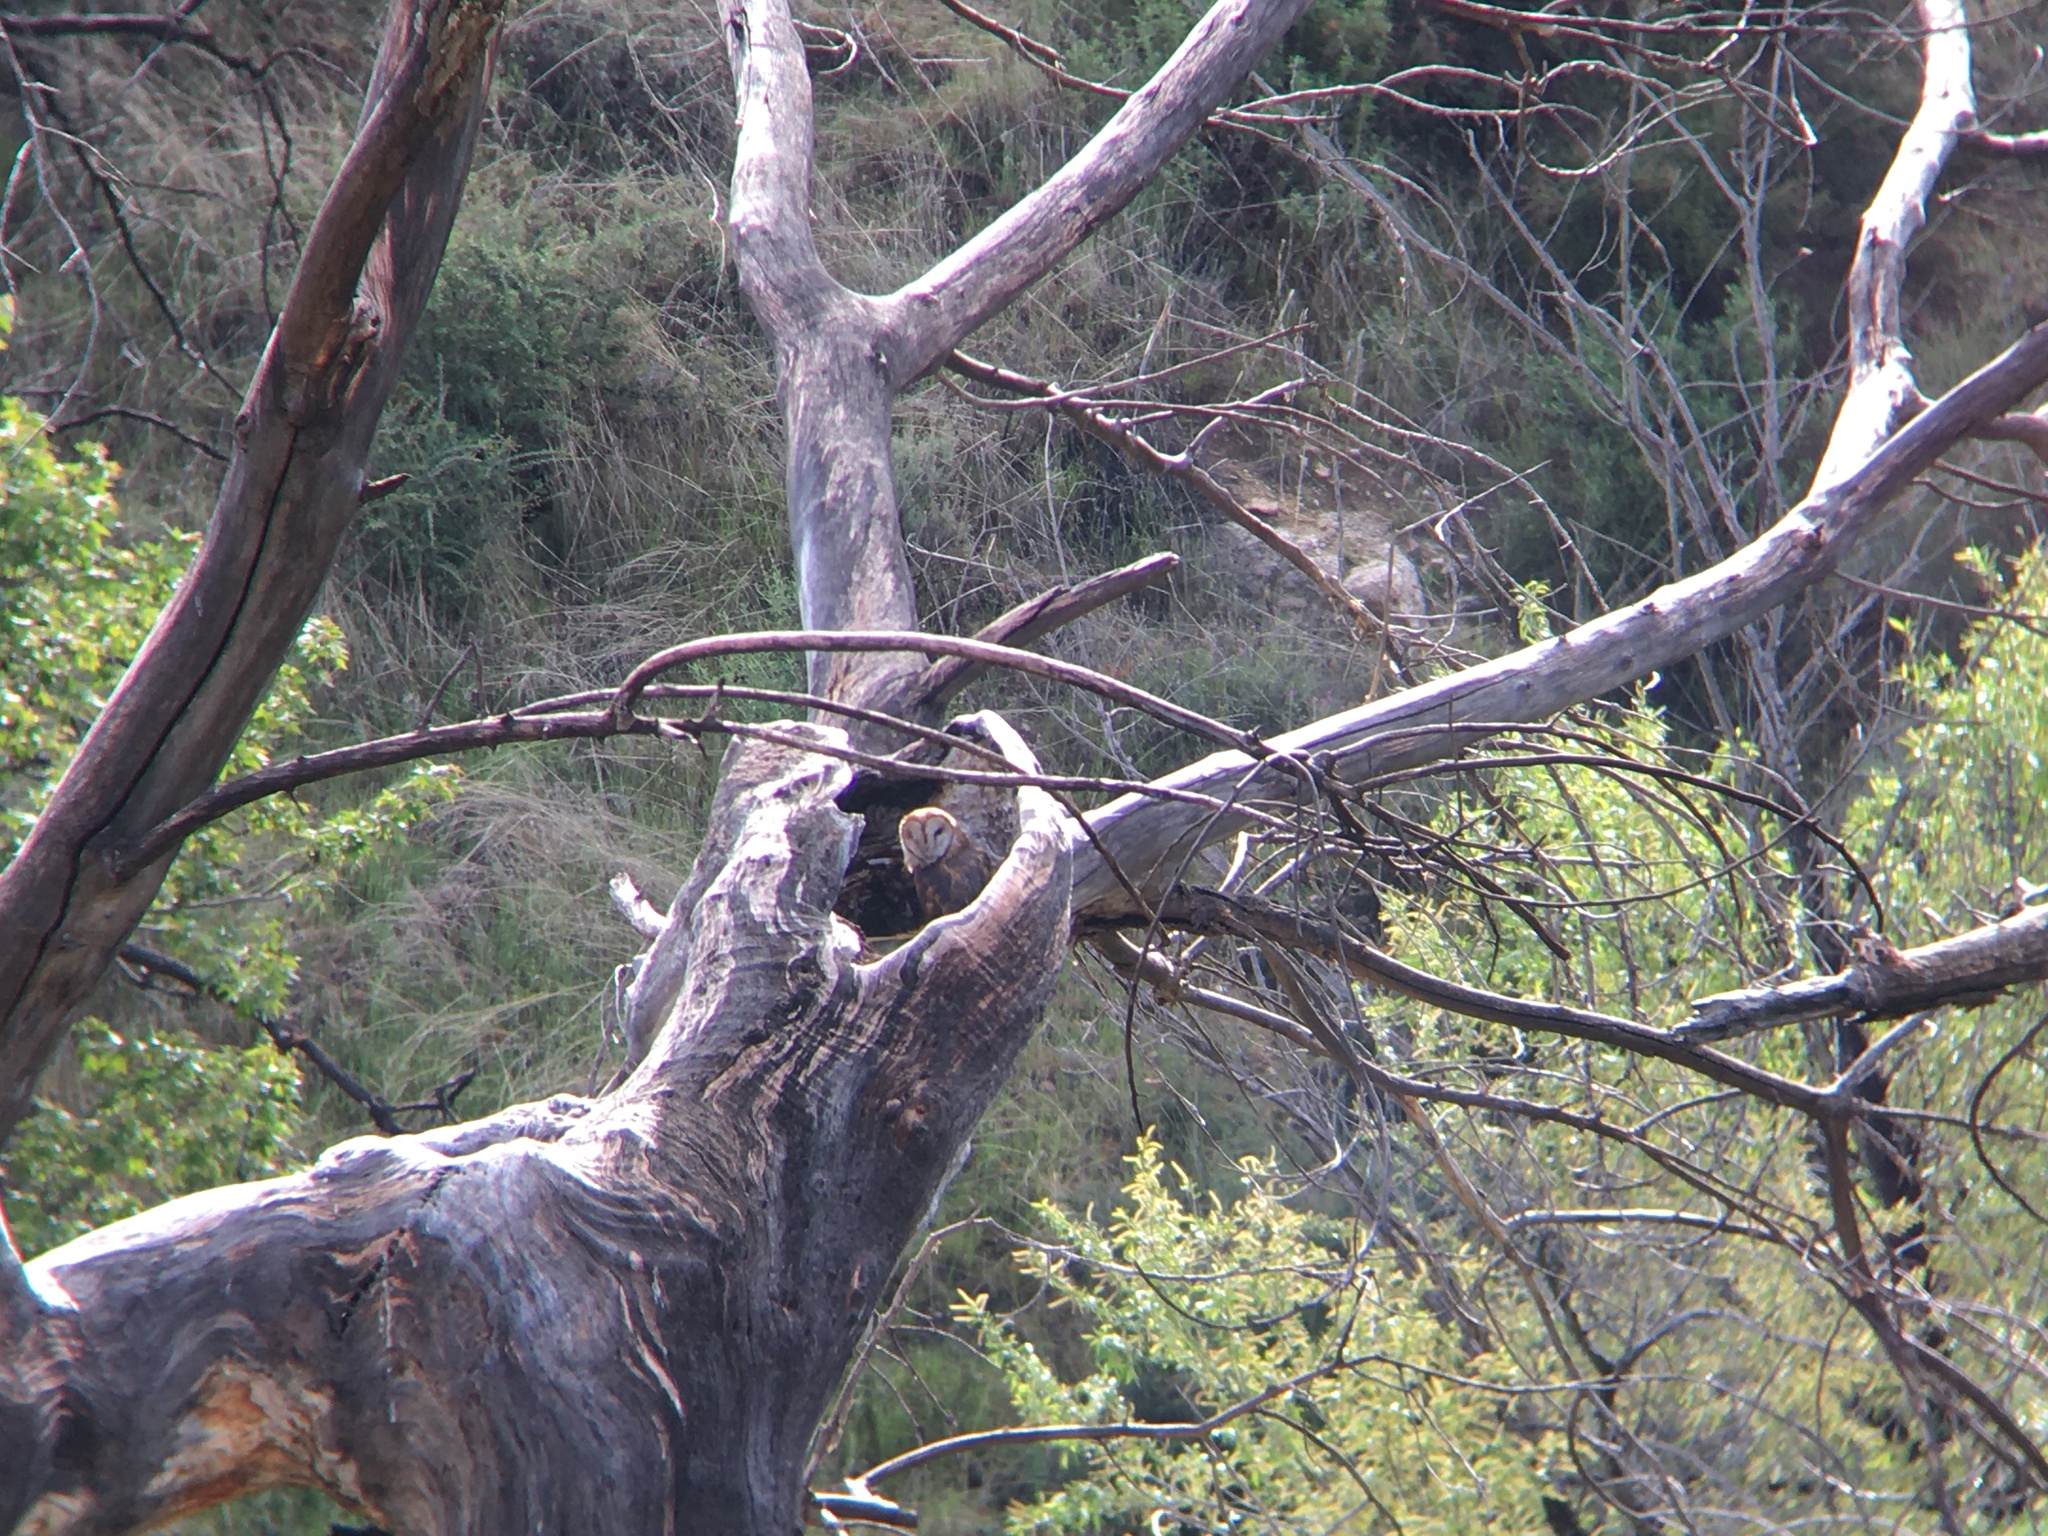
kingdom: Animalia
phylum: Chordata
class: Aves
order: Strigiformes
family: Tytonidae
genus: Tyto
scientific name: Tyto alba
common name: Barn owl
